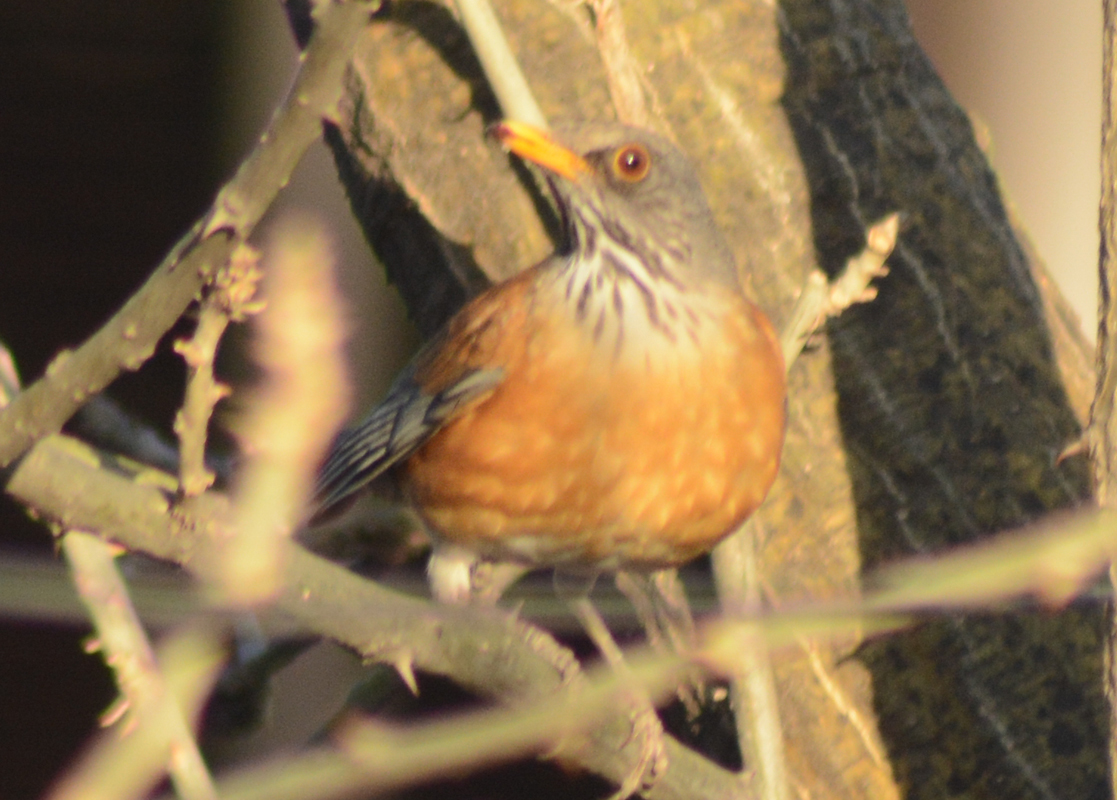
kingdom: Animalia
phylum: Chordata
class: Aves
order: Passeriformes
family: Turdidae
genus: Turdus
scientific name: Turdus rufopalliatus
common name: Rufous-backed robin
